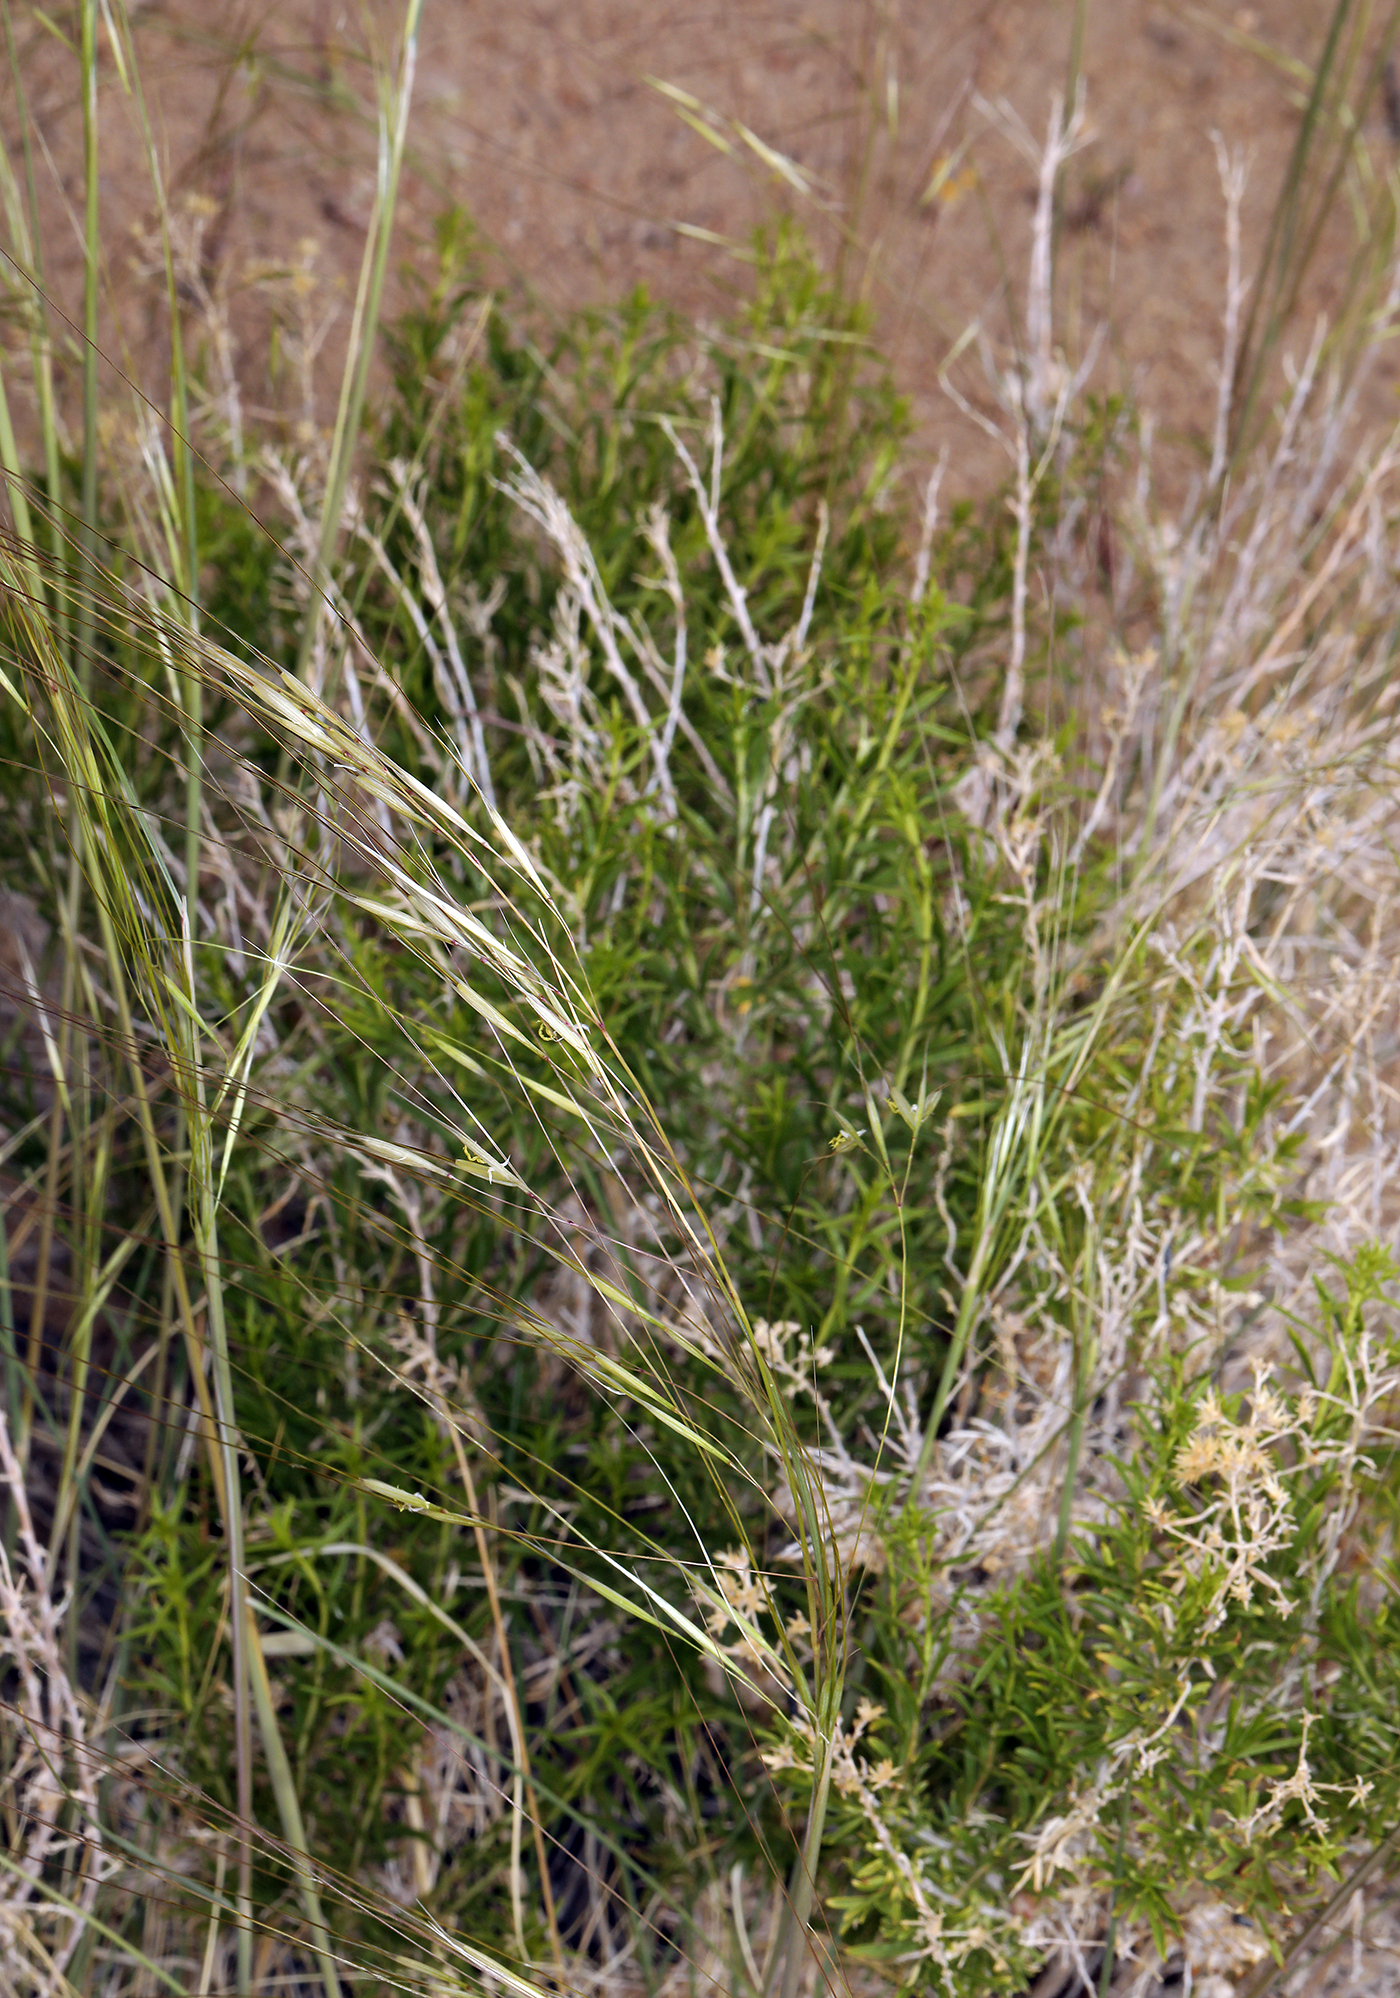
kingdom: Plantae
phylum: Tracheophyta
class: Liliopsida
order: Poales
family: Poaceae
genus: Hesperostipa
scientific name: Hesperostipa comata
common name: Needle-and-thread grass
